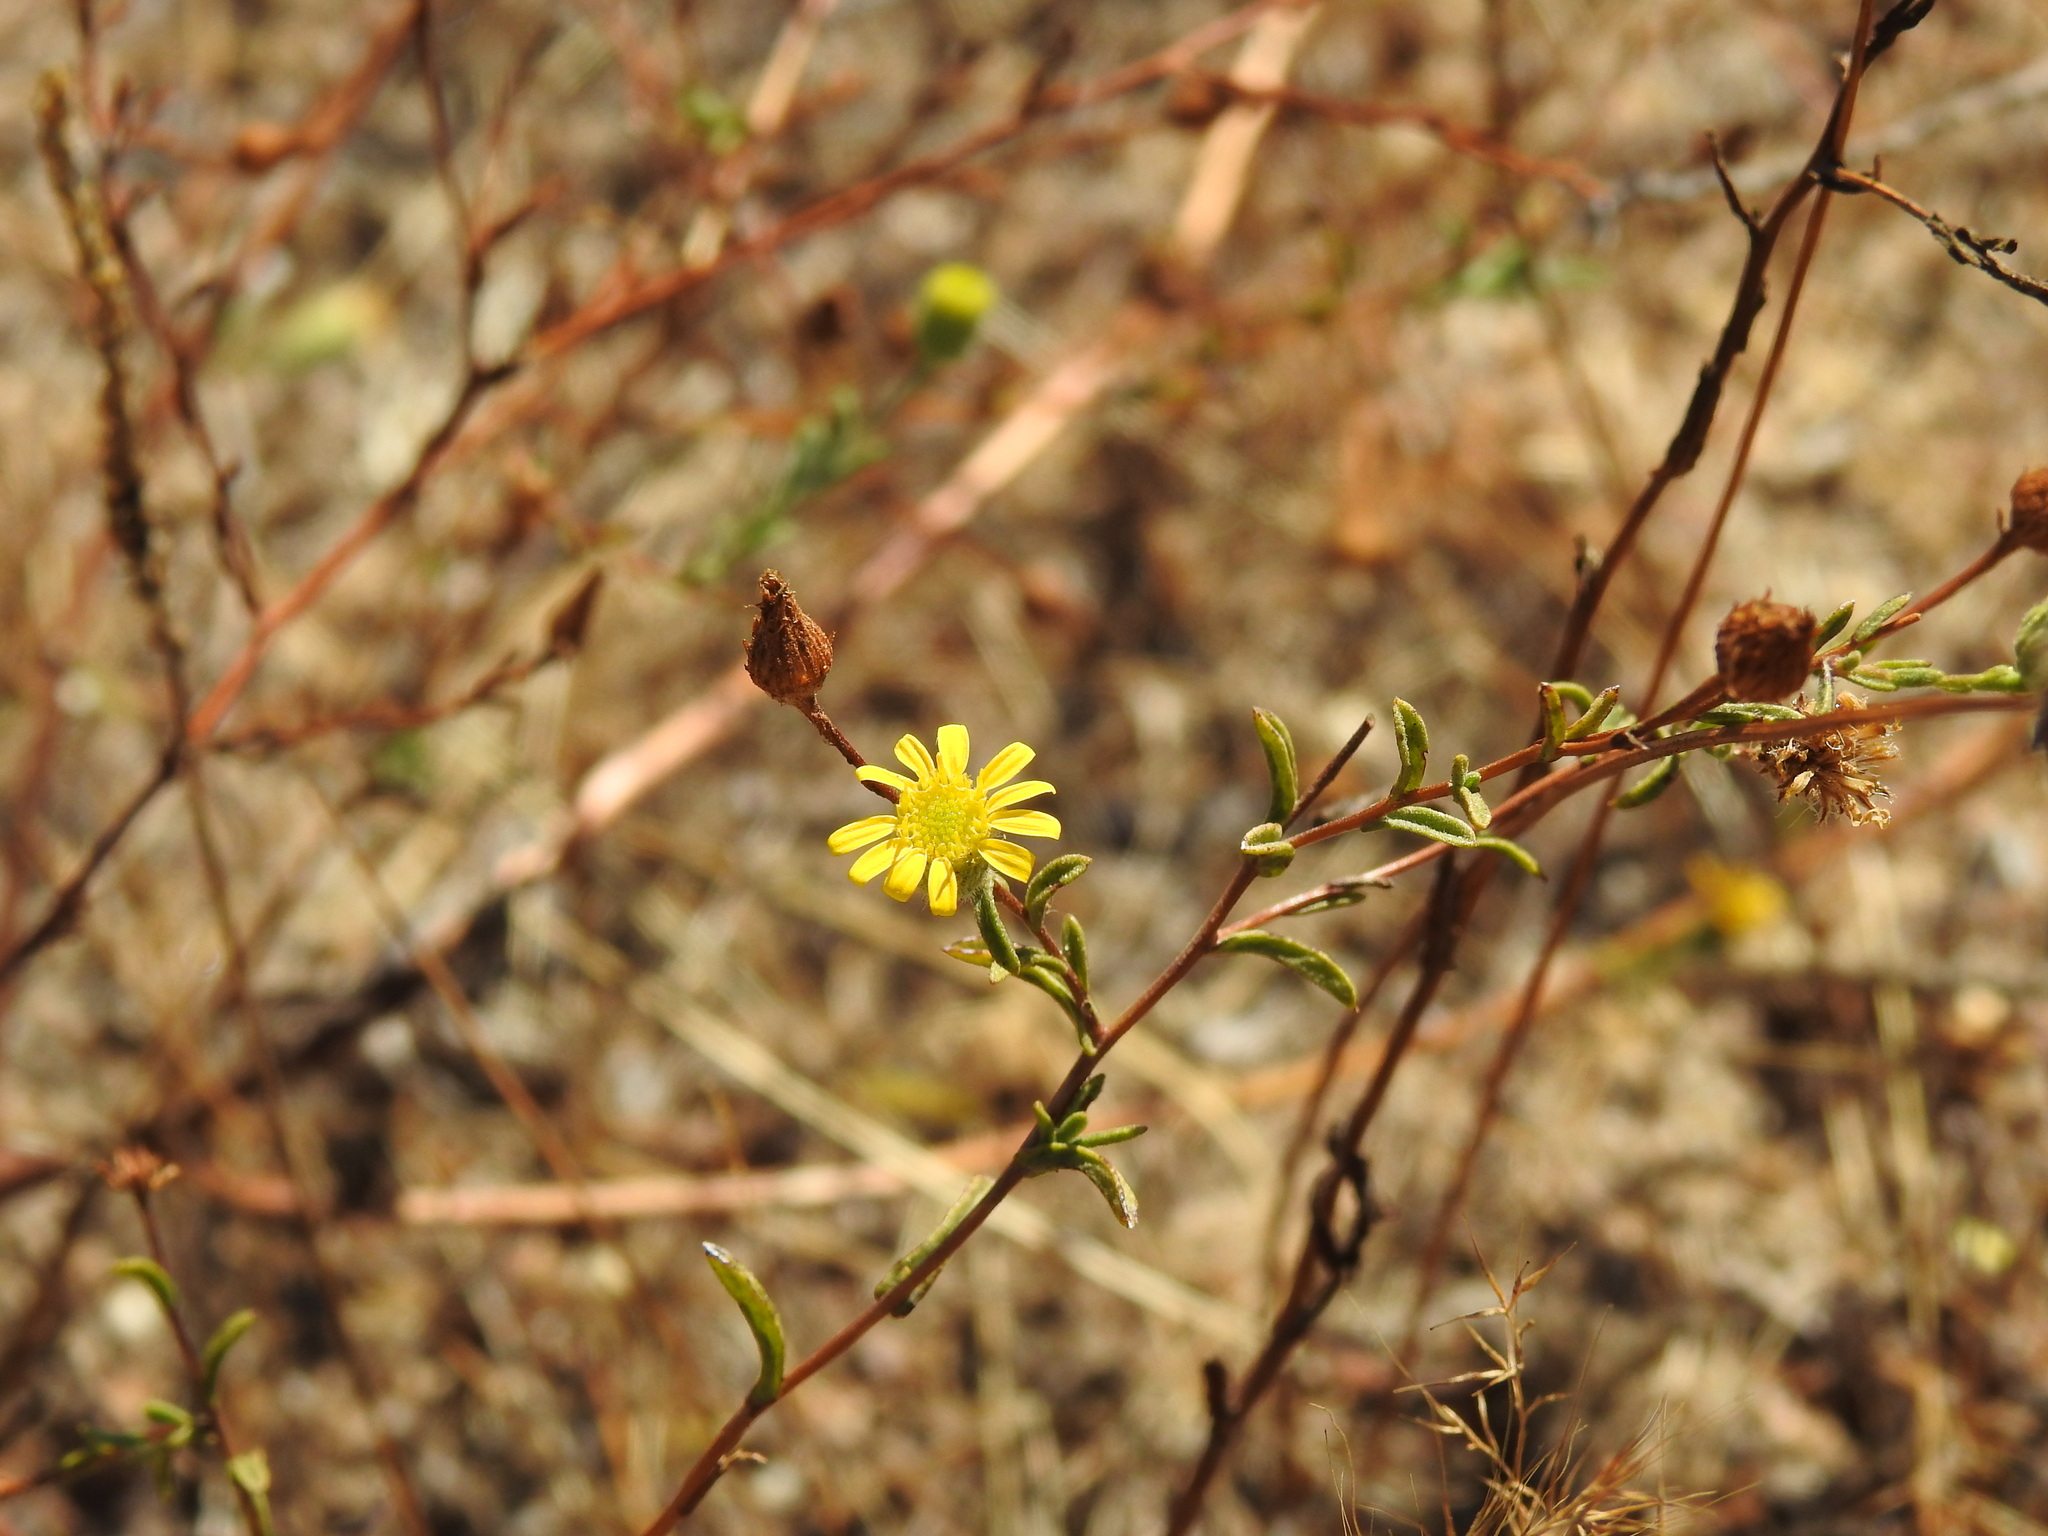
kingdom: Plantae
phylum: Tracheophyta
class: Magnoliopsida
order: Asterales
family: Asteraceae
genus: Pulicaria
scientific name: Pulicaria paludosa
